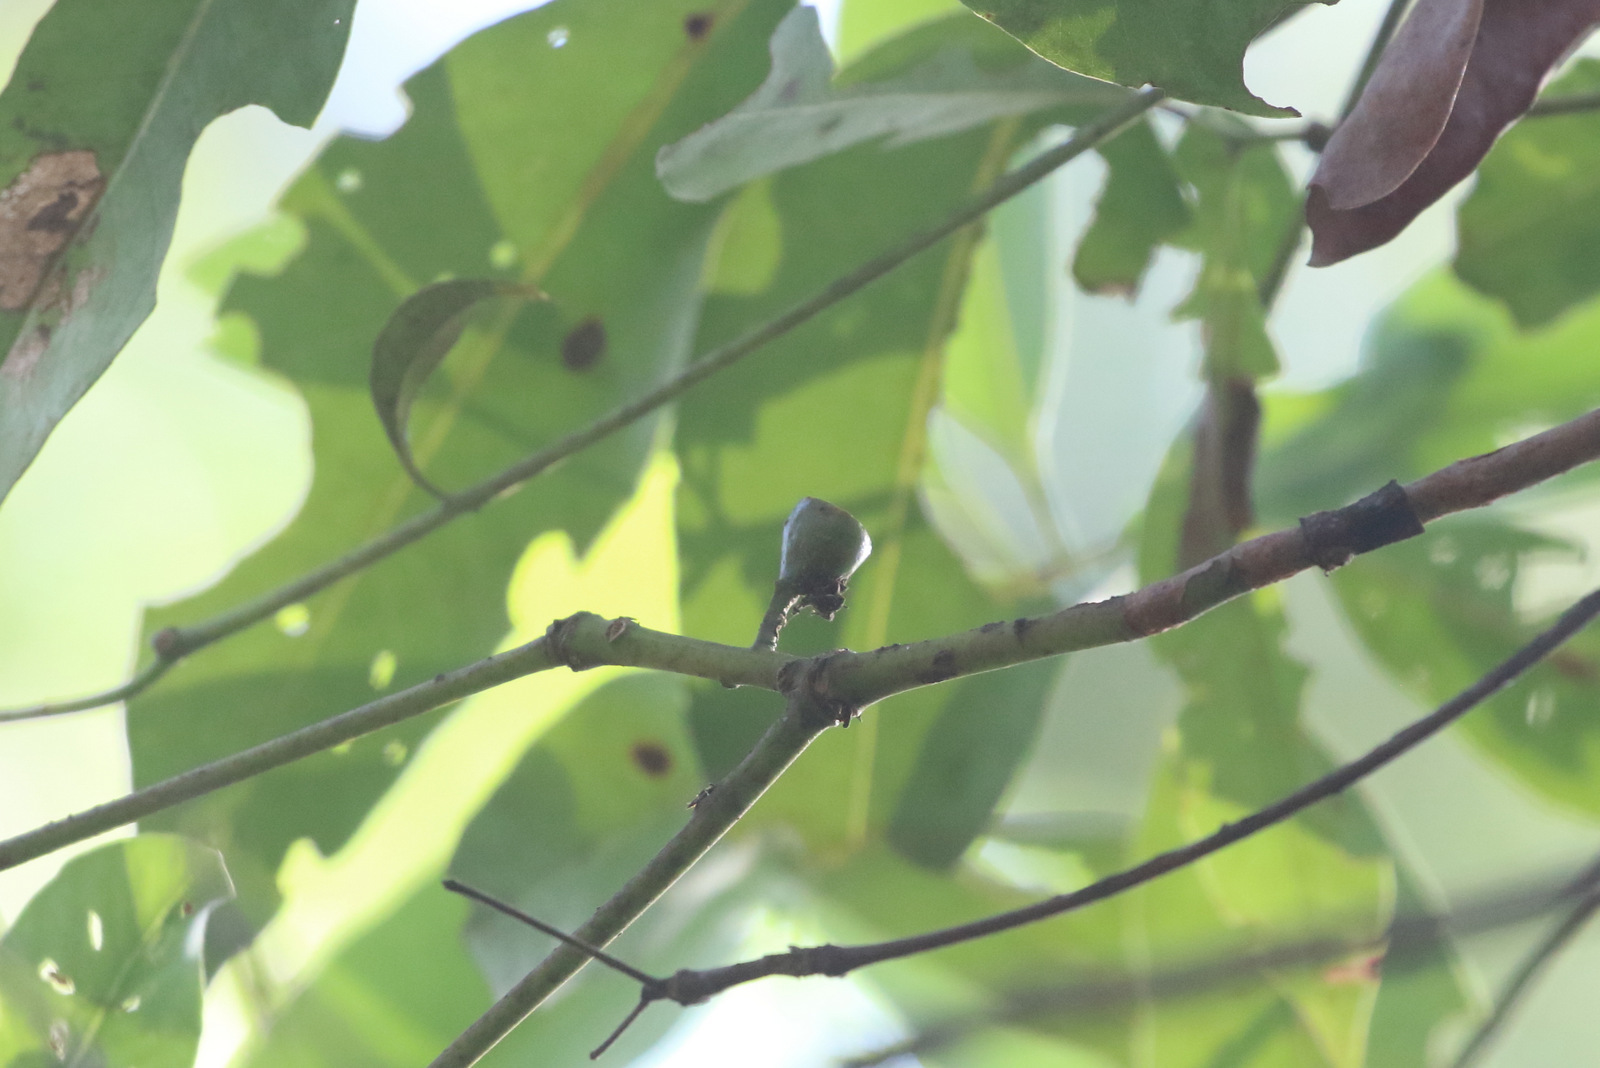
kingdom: Plantae
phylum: Tracheophyta
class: Magnoliopsida
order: Myrtales
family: Myrtaceae
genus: Lophostemon
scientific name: Lophostemon confertus
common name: Brisbane box
